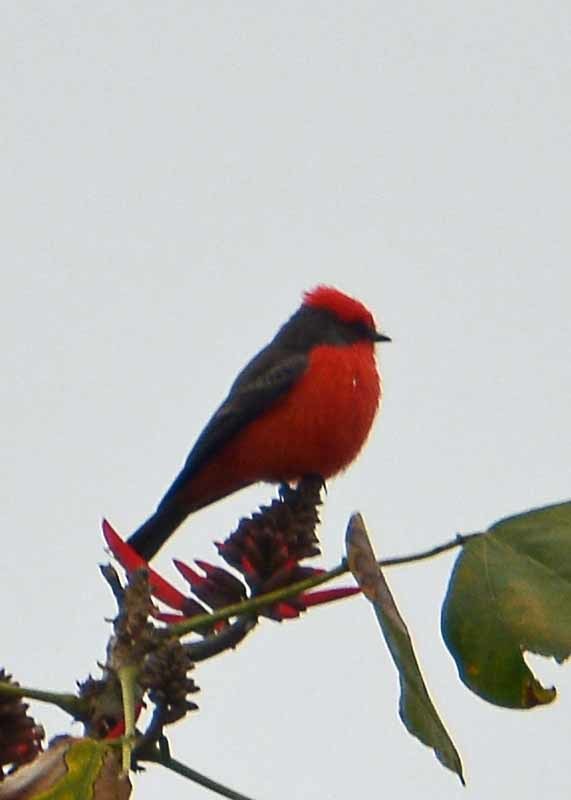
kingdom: Animalia
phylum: Chordata
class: Aves
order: Passeriformes
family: Tyrannidae
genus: Pyrocephalus
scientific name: Pyrocephalus rubinus
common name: Vermilion flycatcher
